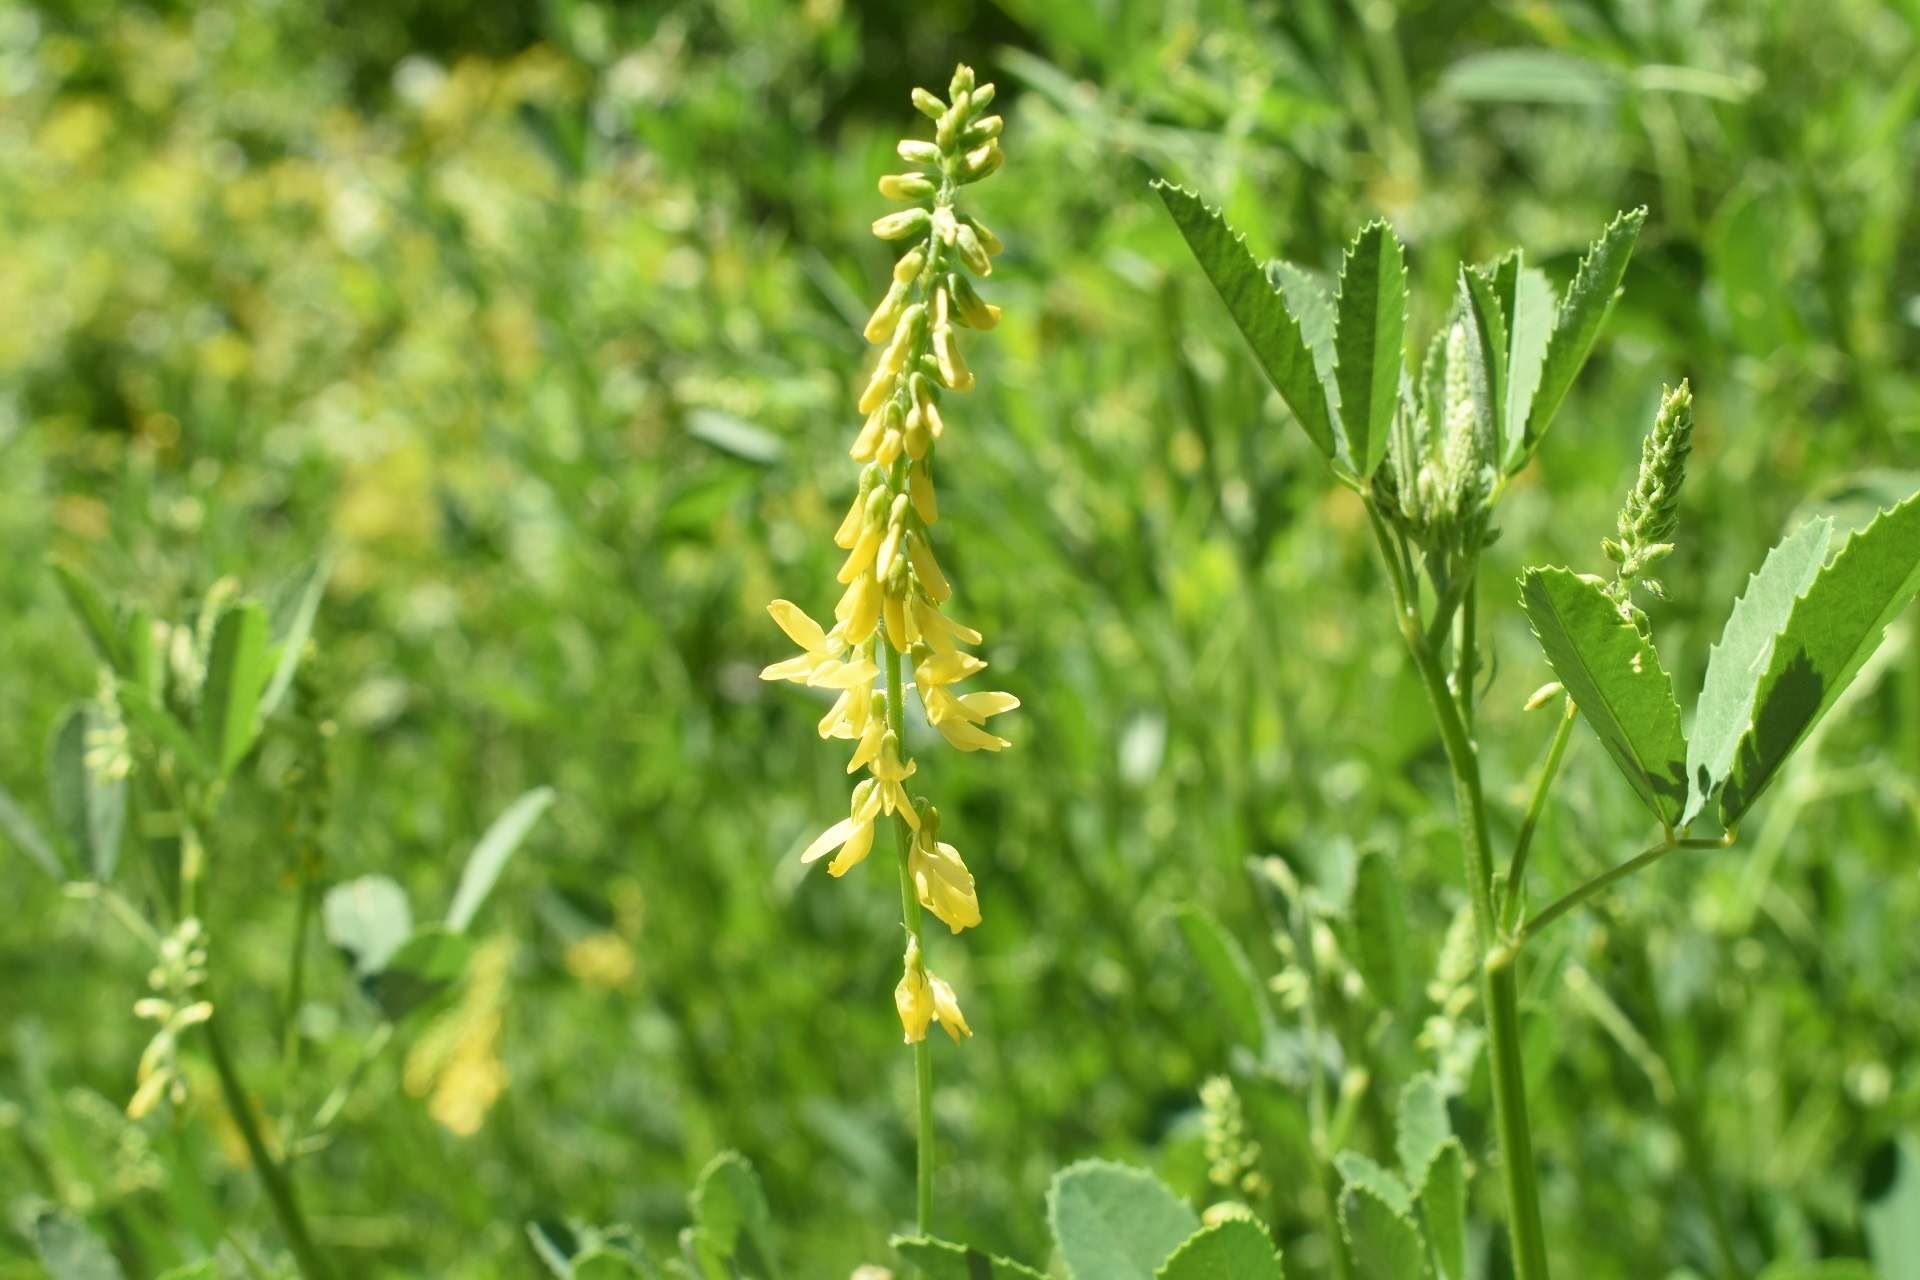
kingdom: Plantae
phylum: Tracheophyta
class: Magnoliopsida
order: Fabales
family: Fabaceae
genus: Melilotus
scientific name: Melilotus officinalis
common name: Sweetclover
